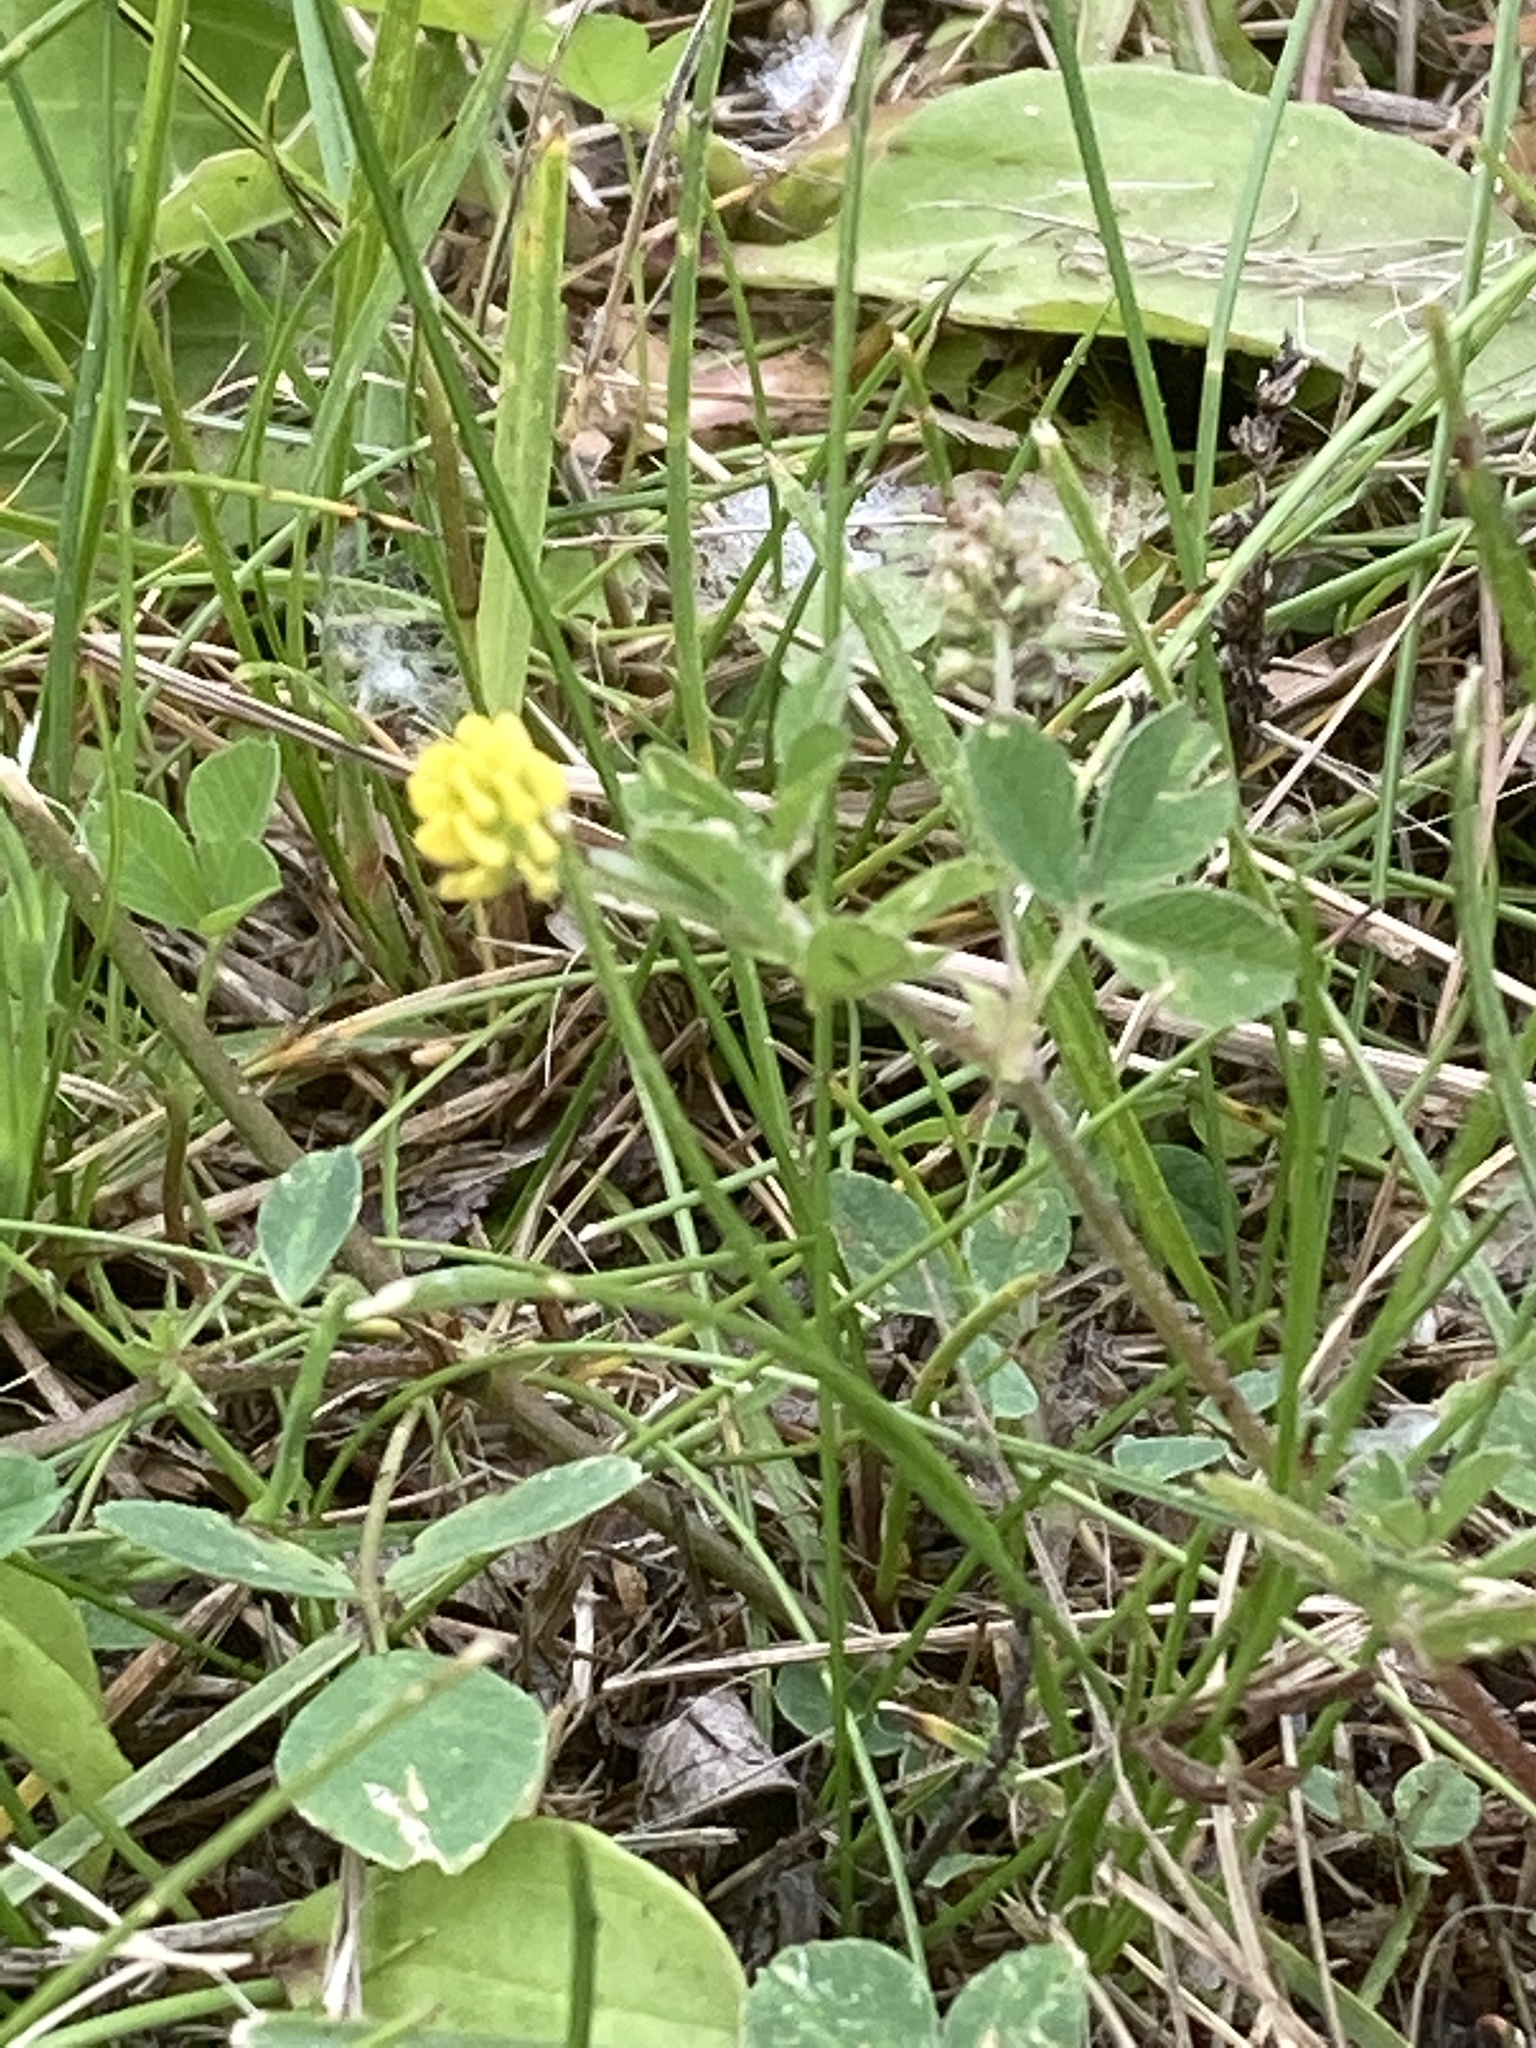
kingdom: Plantae
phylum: Tracheophyta
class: Magnoliopsida
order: Fabales
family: Fabaceae
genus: Medicago
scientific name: Medicago lupulina
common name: Black medick
